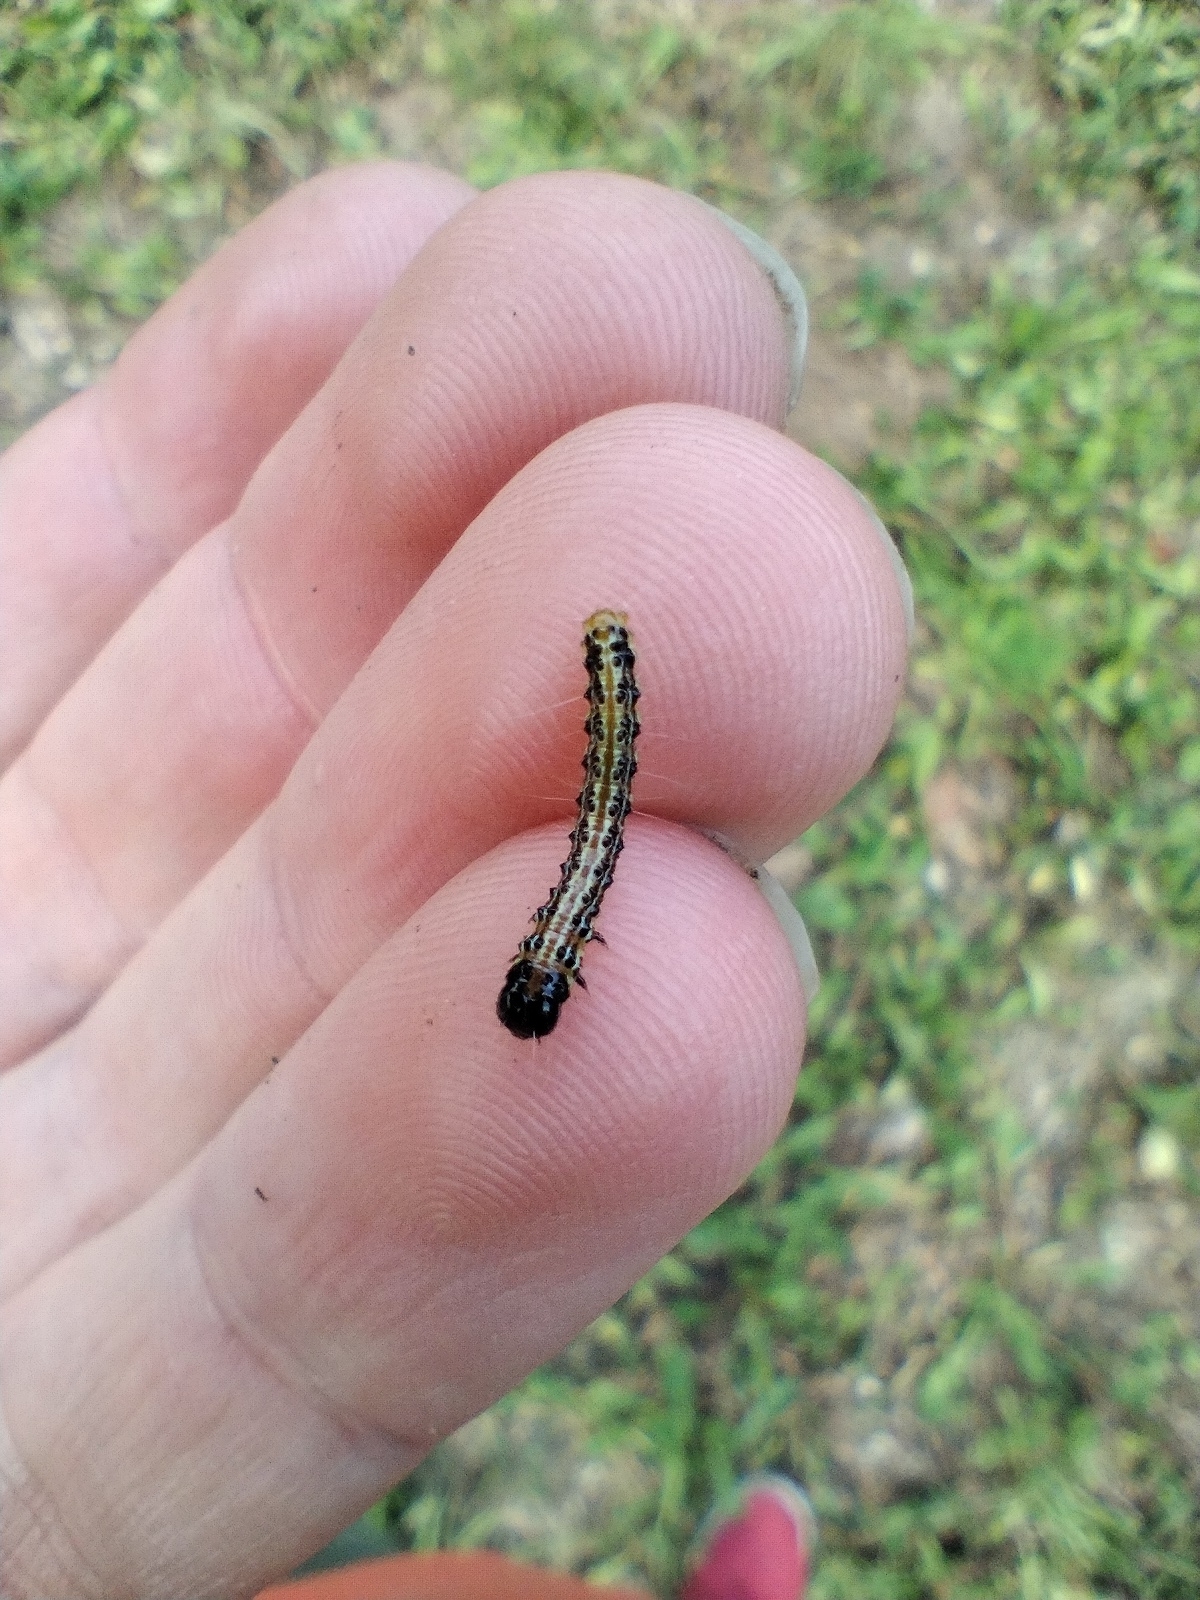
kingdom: Animalia
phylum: Arthropoda
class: Insecta
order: Lepidoptera
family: Crambidae
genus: Cydalima
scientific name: Cydalima perspectalis
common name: Box tree moth
